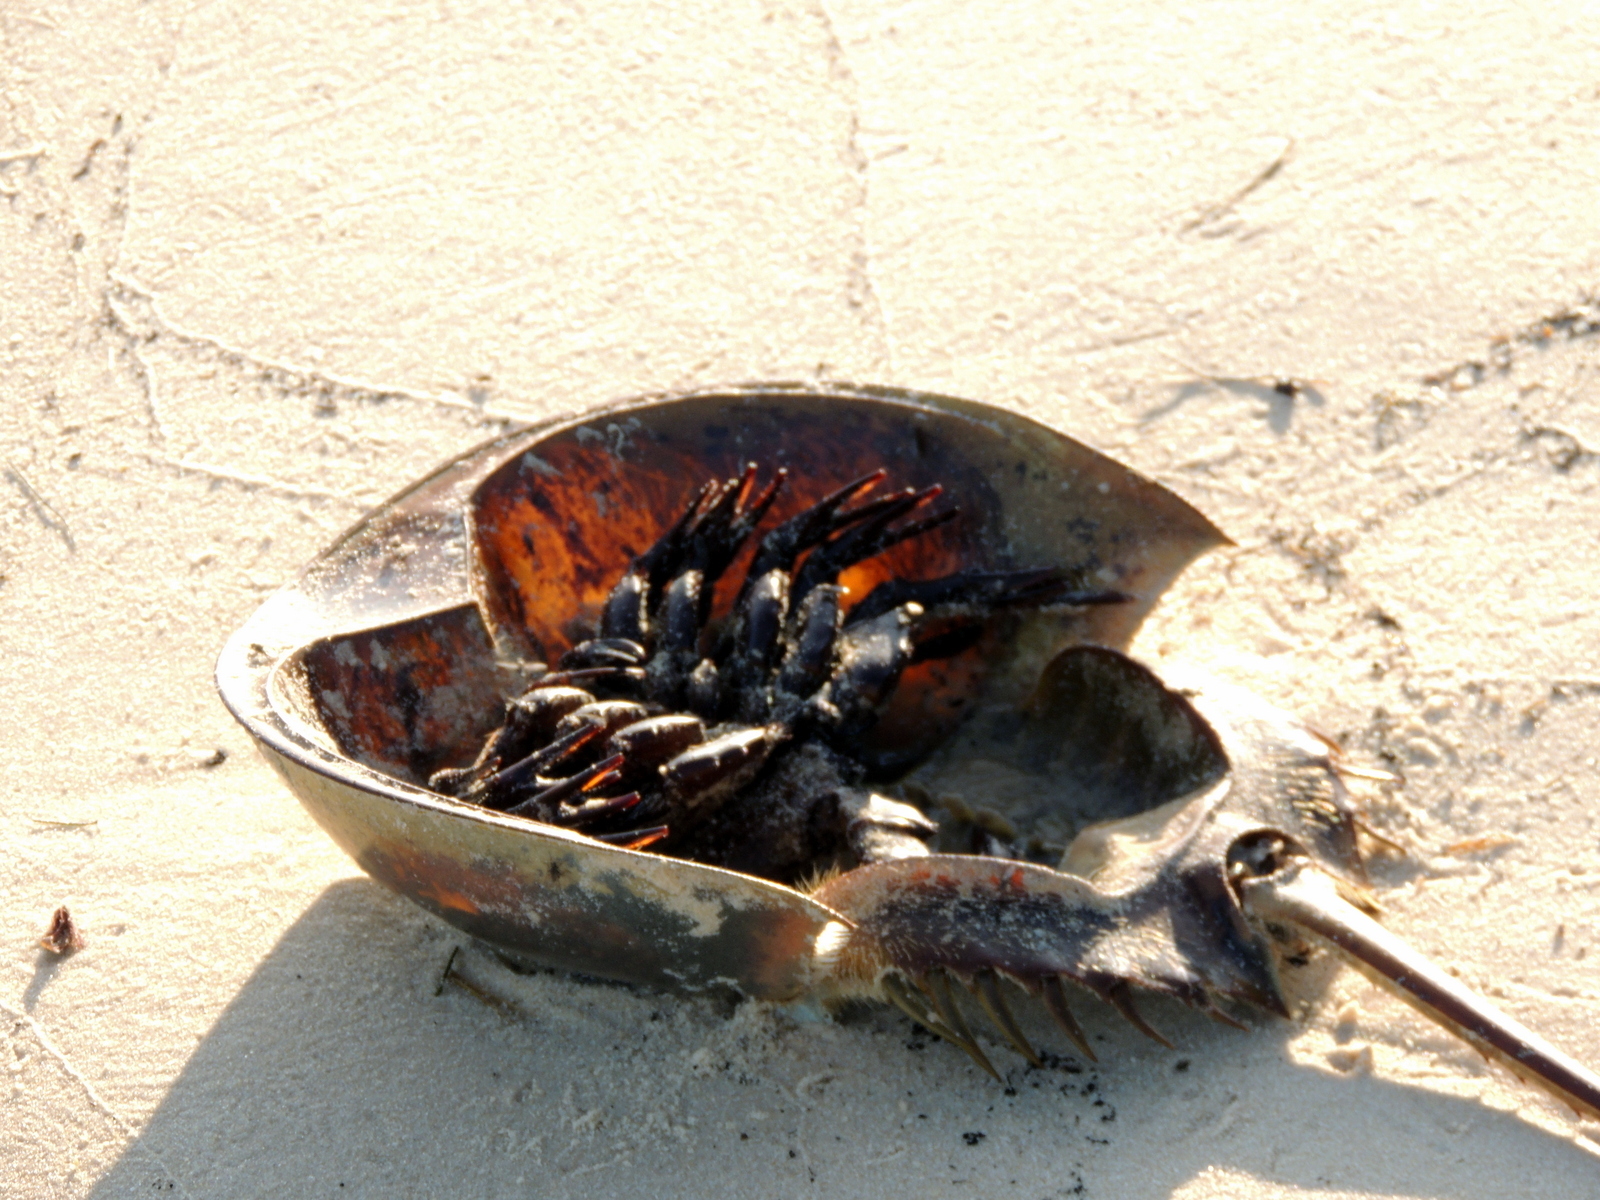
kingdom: Animalia
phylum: Arthropoda
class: Merostomata
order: Xiphosurida
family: Limulidae
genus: Limulus
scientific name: Limulus polyphemus
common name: Horseshoe crab
